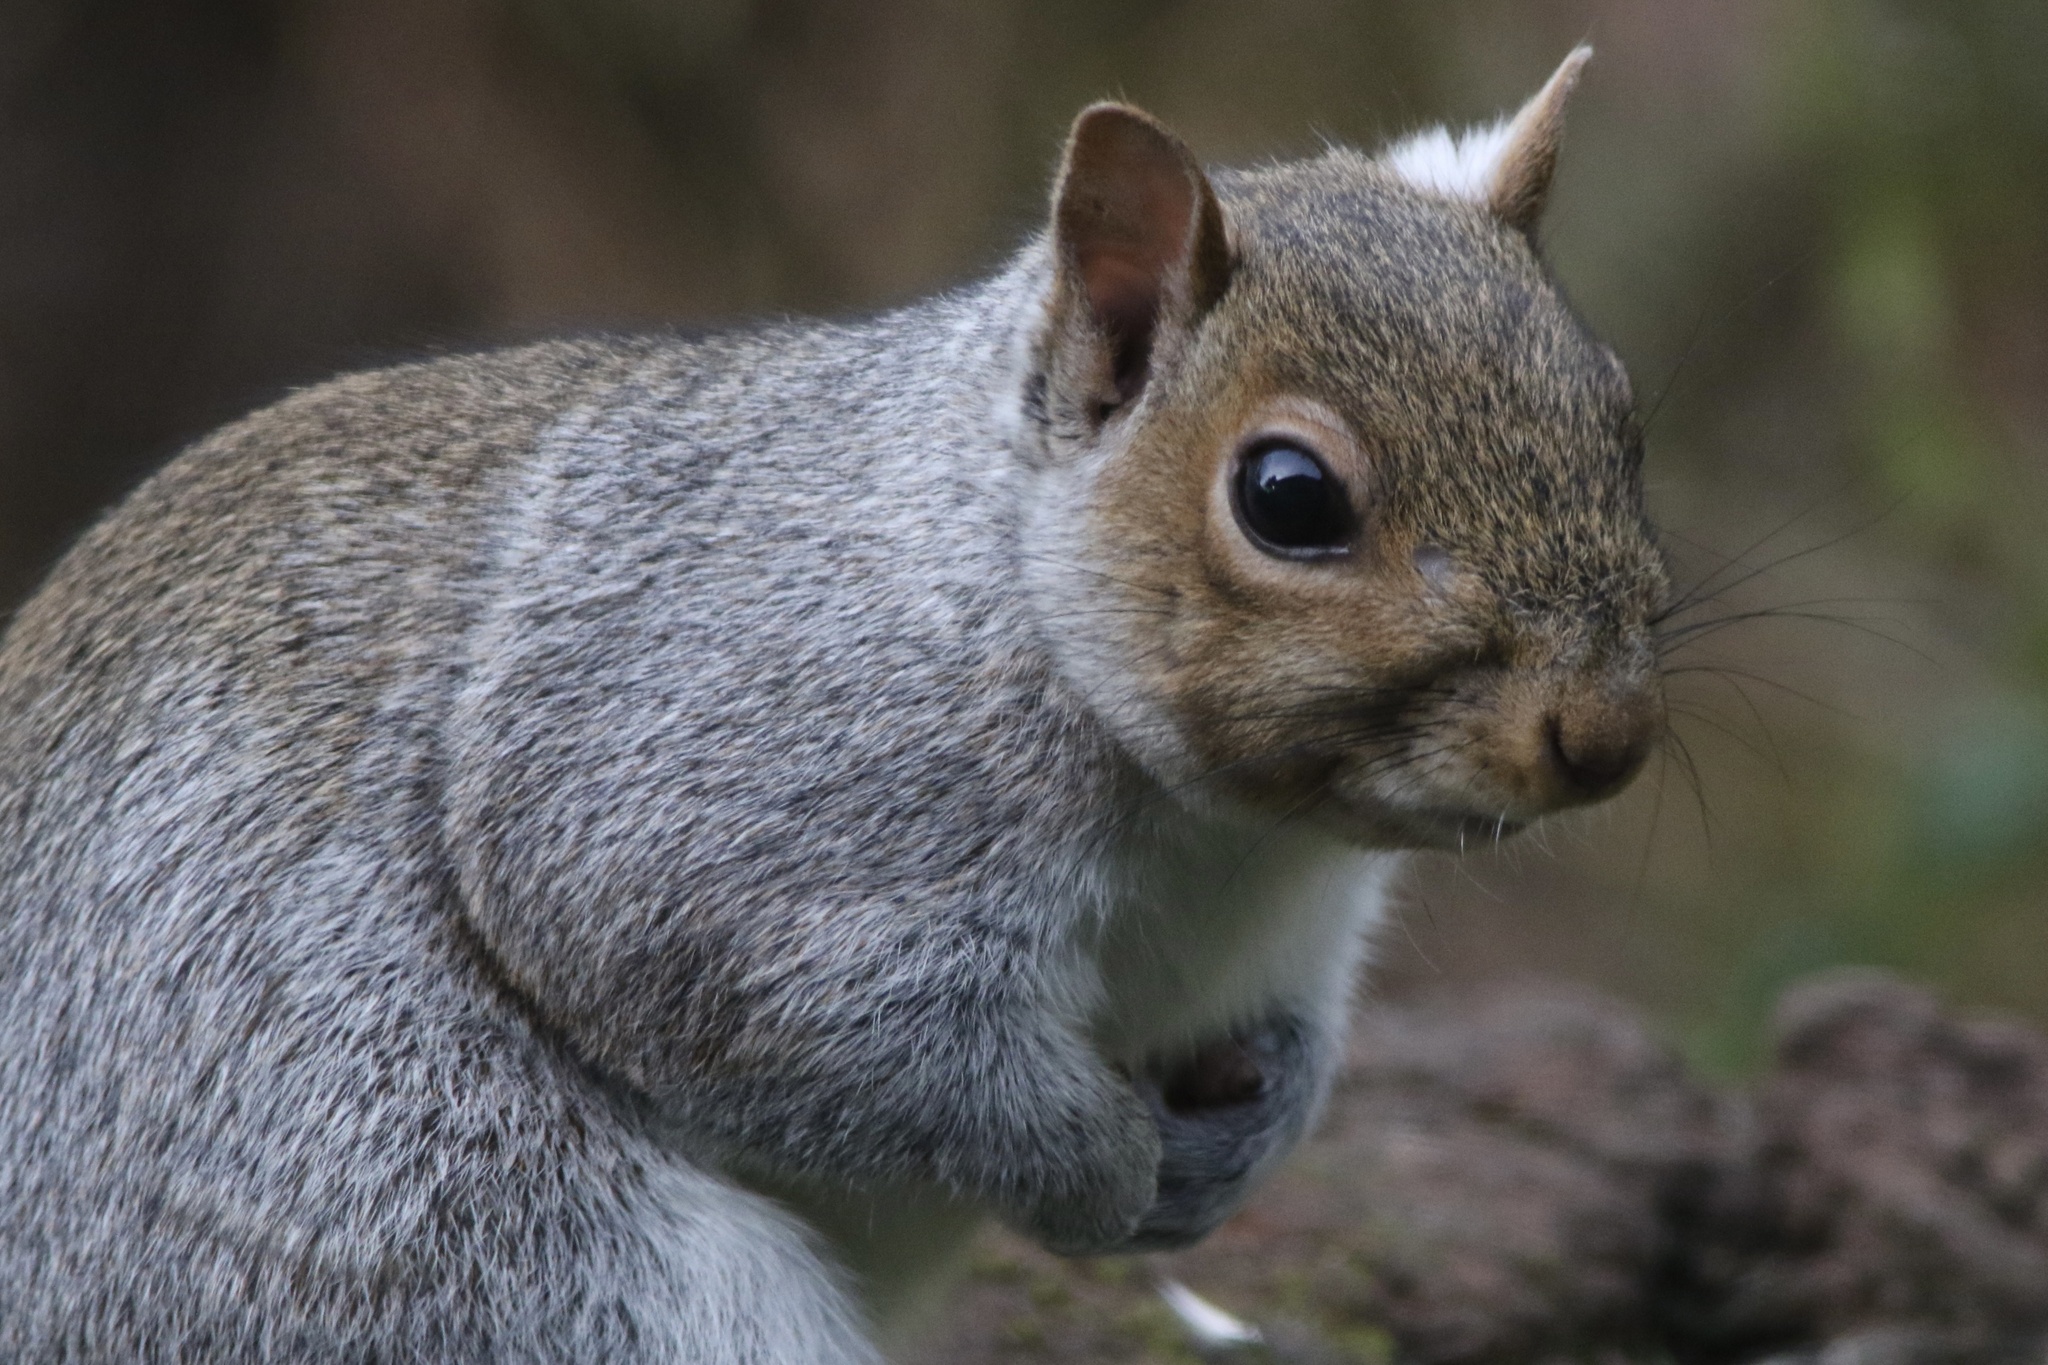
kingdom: Animalia
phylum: Chordata
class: Mammalia
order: Rodentia
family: Sciuridae
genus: Sciurus
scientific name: Sciurus carolinensis
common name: Eastern gray squirrel
